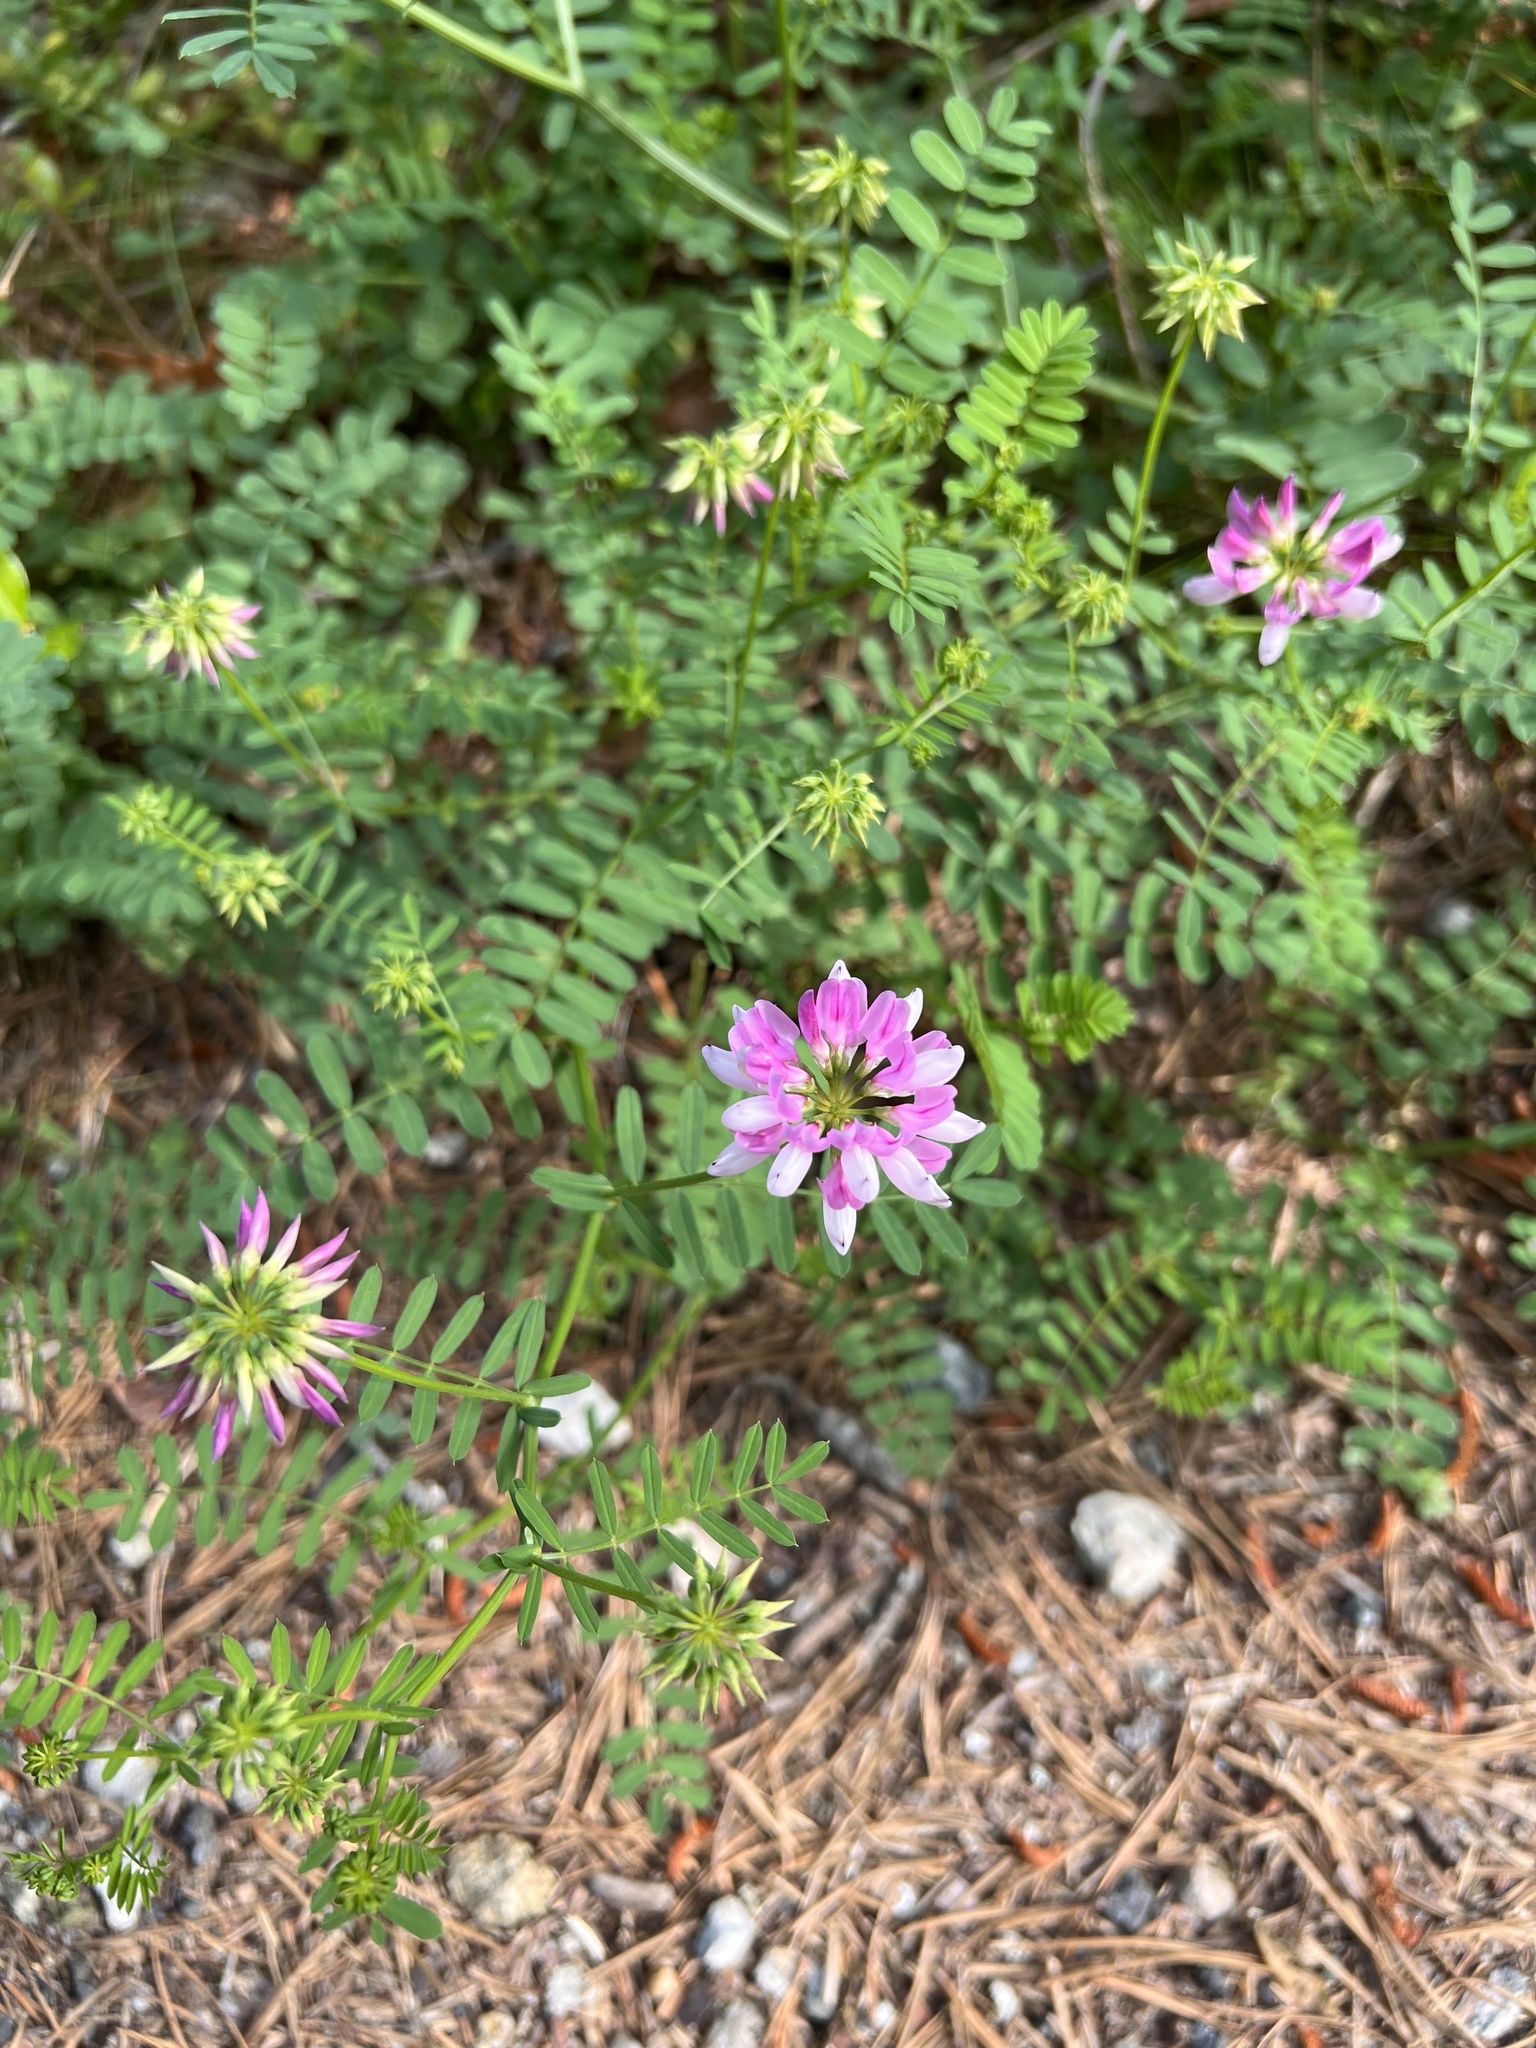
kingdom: Plantae
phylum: Tracheophyta
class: Magnoliopsida
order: Fabales
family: Fabaceae
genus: Coronilla
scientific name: Coronilla varia
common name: Crownvetch
